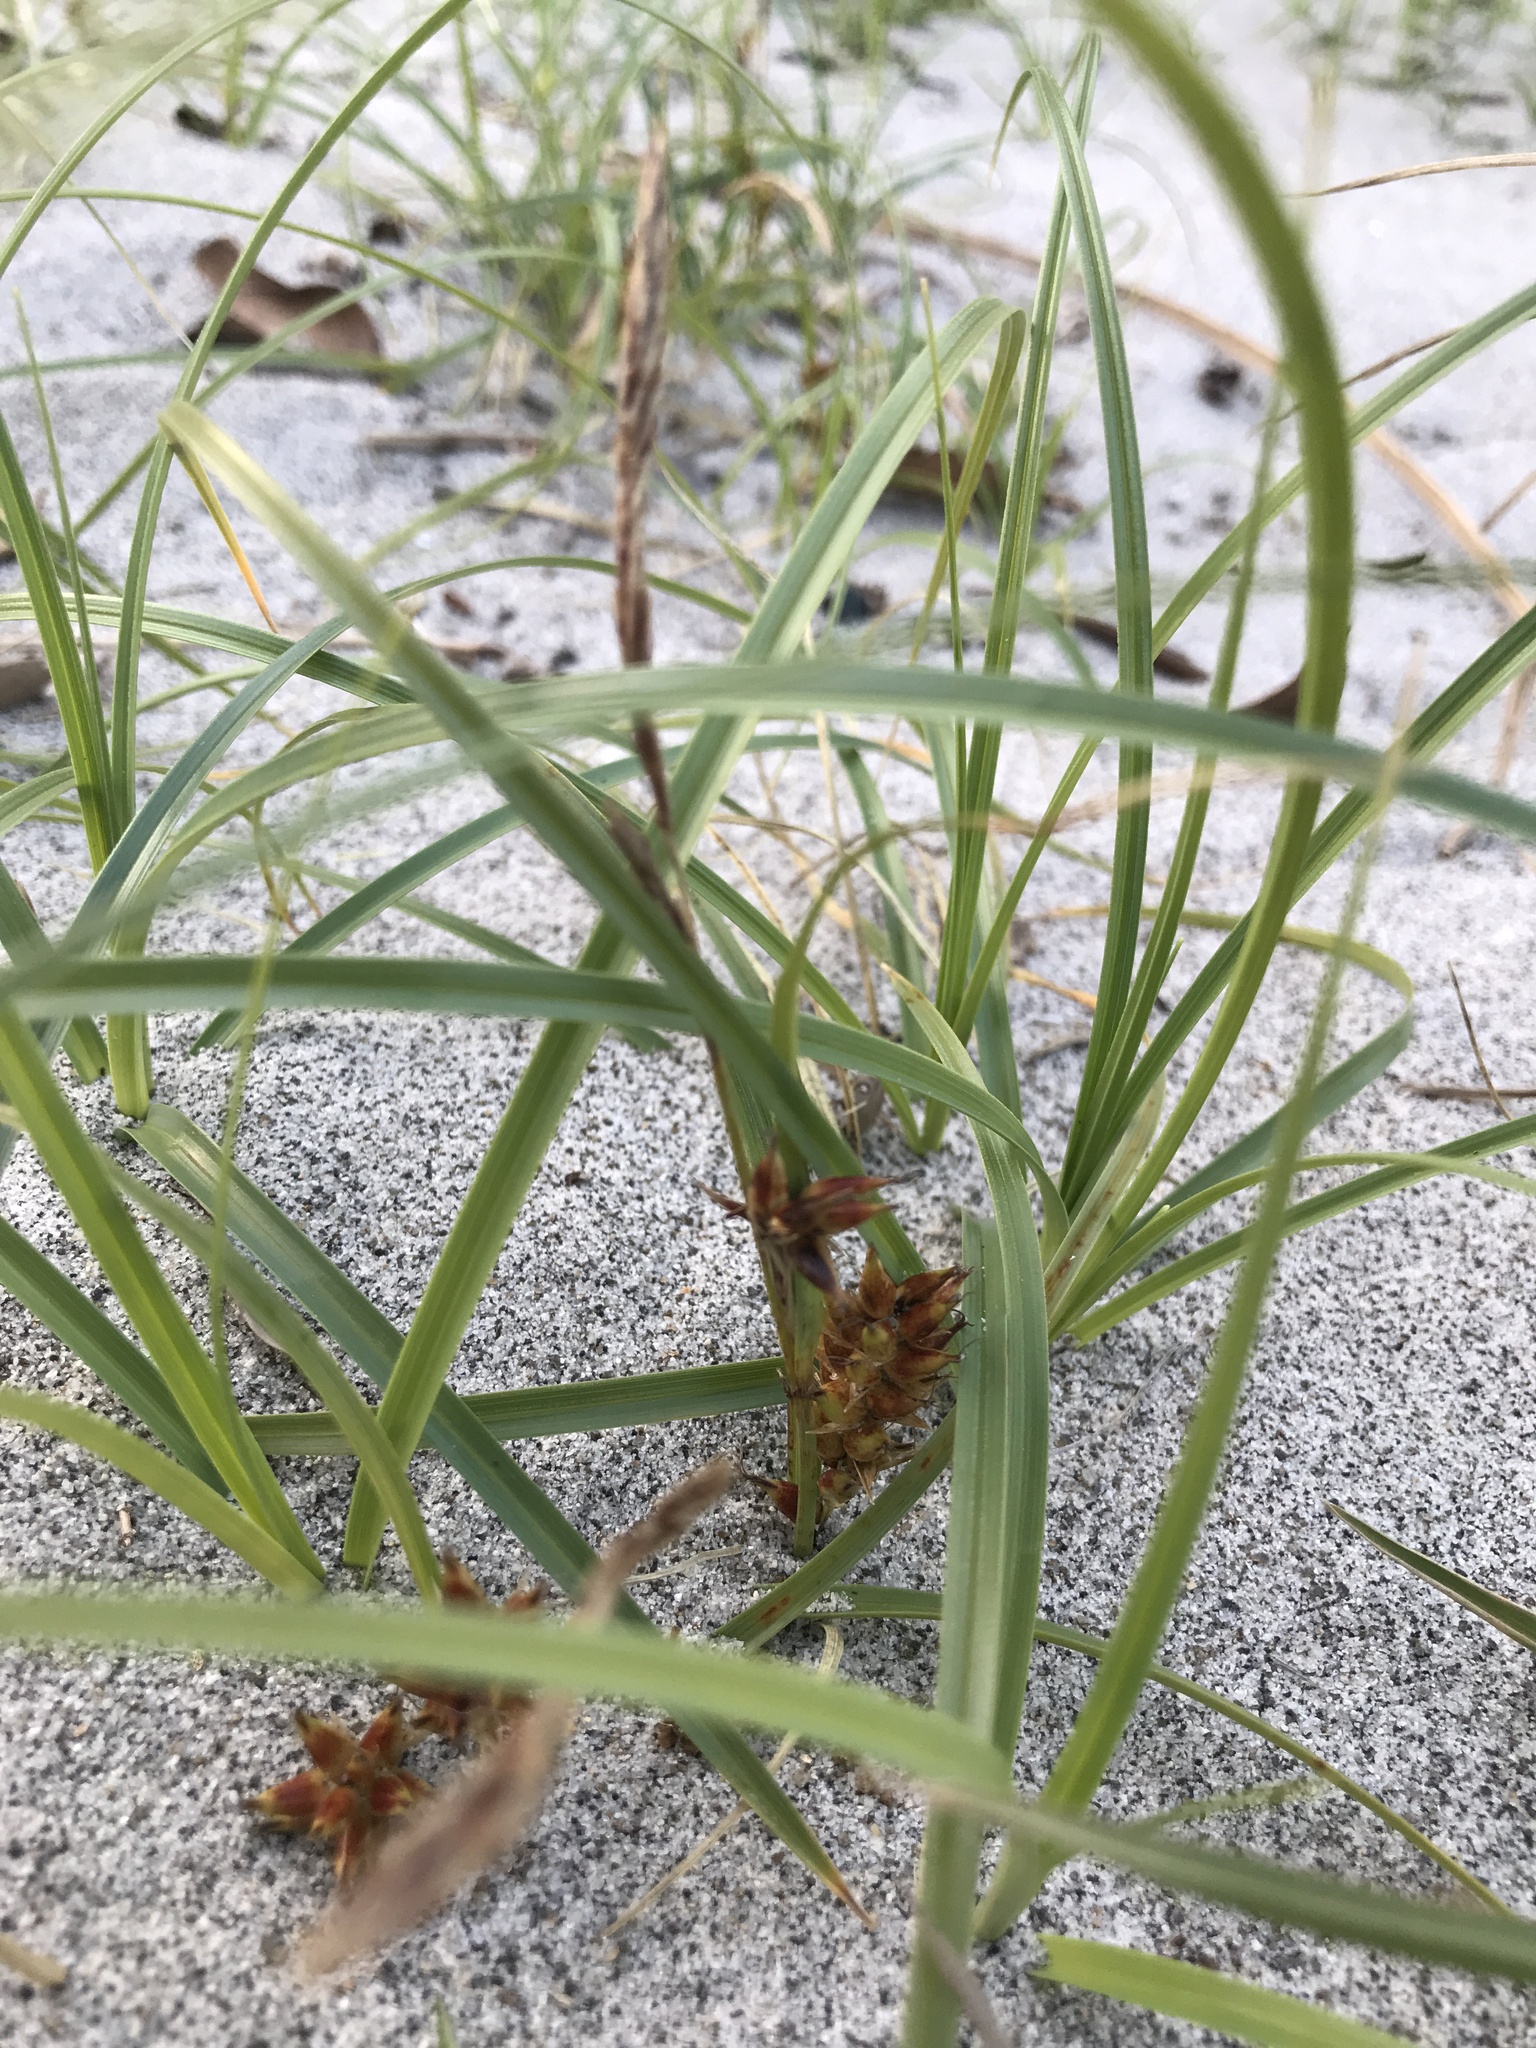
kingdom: Plantae
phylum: Tracheophyta
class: Liliopsida
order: Poales
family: Cyperaceae
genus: Carex
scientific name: Carex pumila
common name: Dwarf sedge
